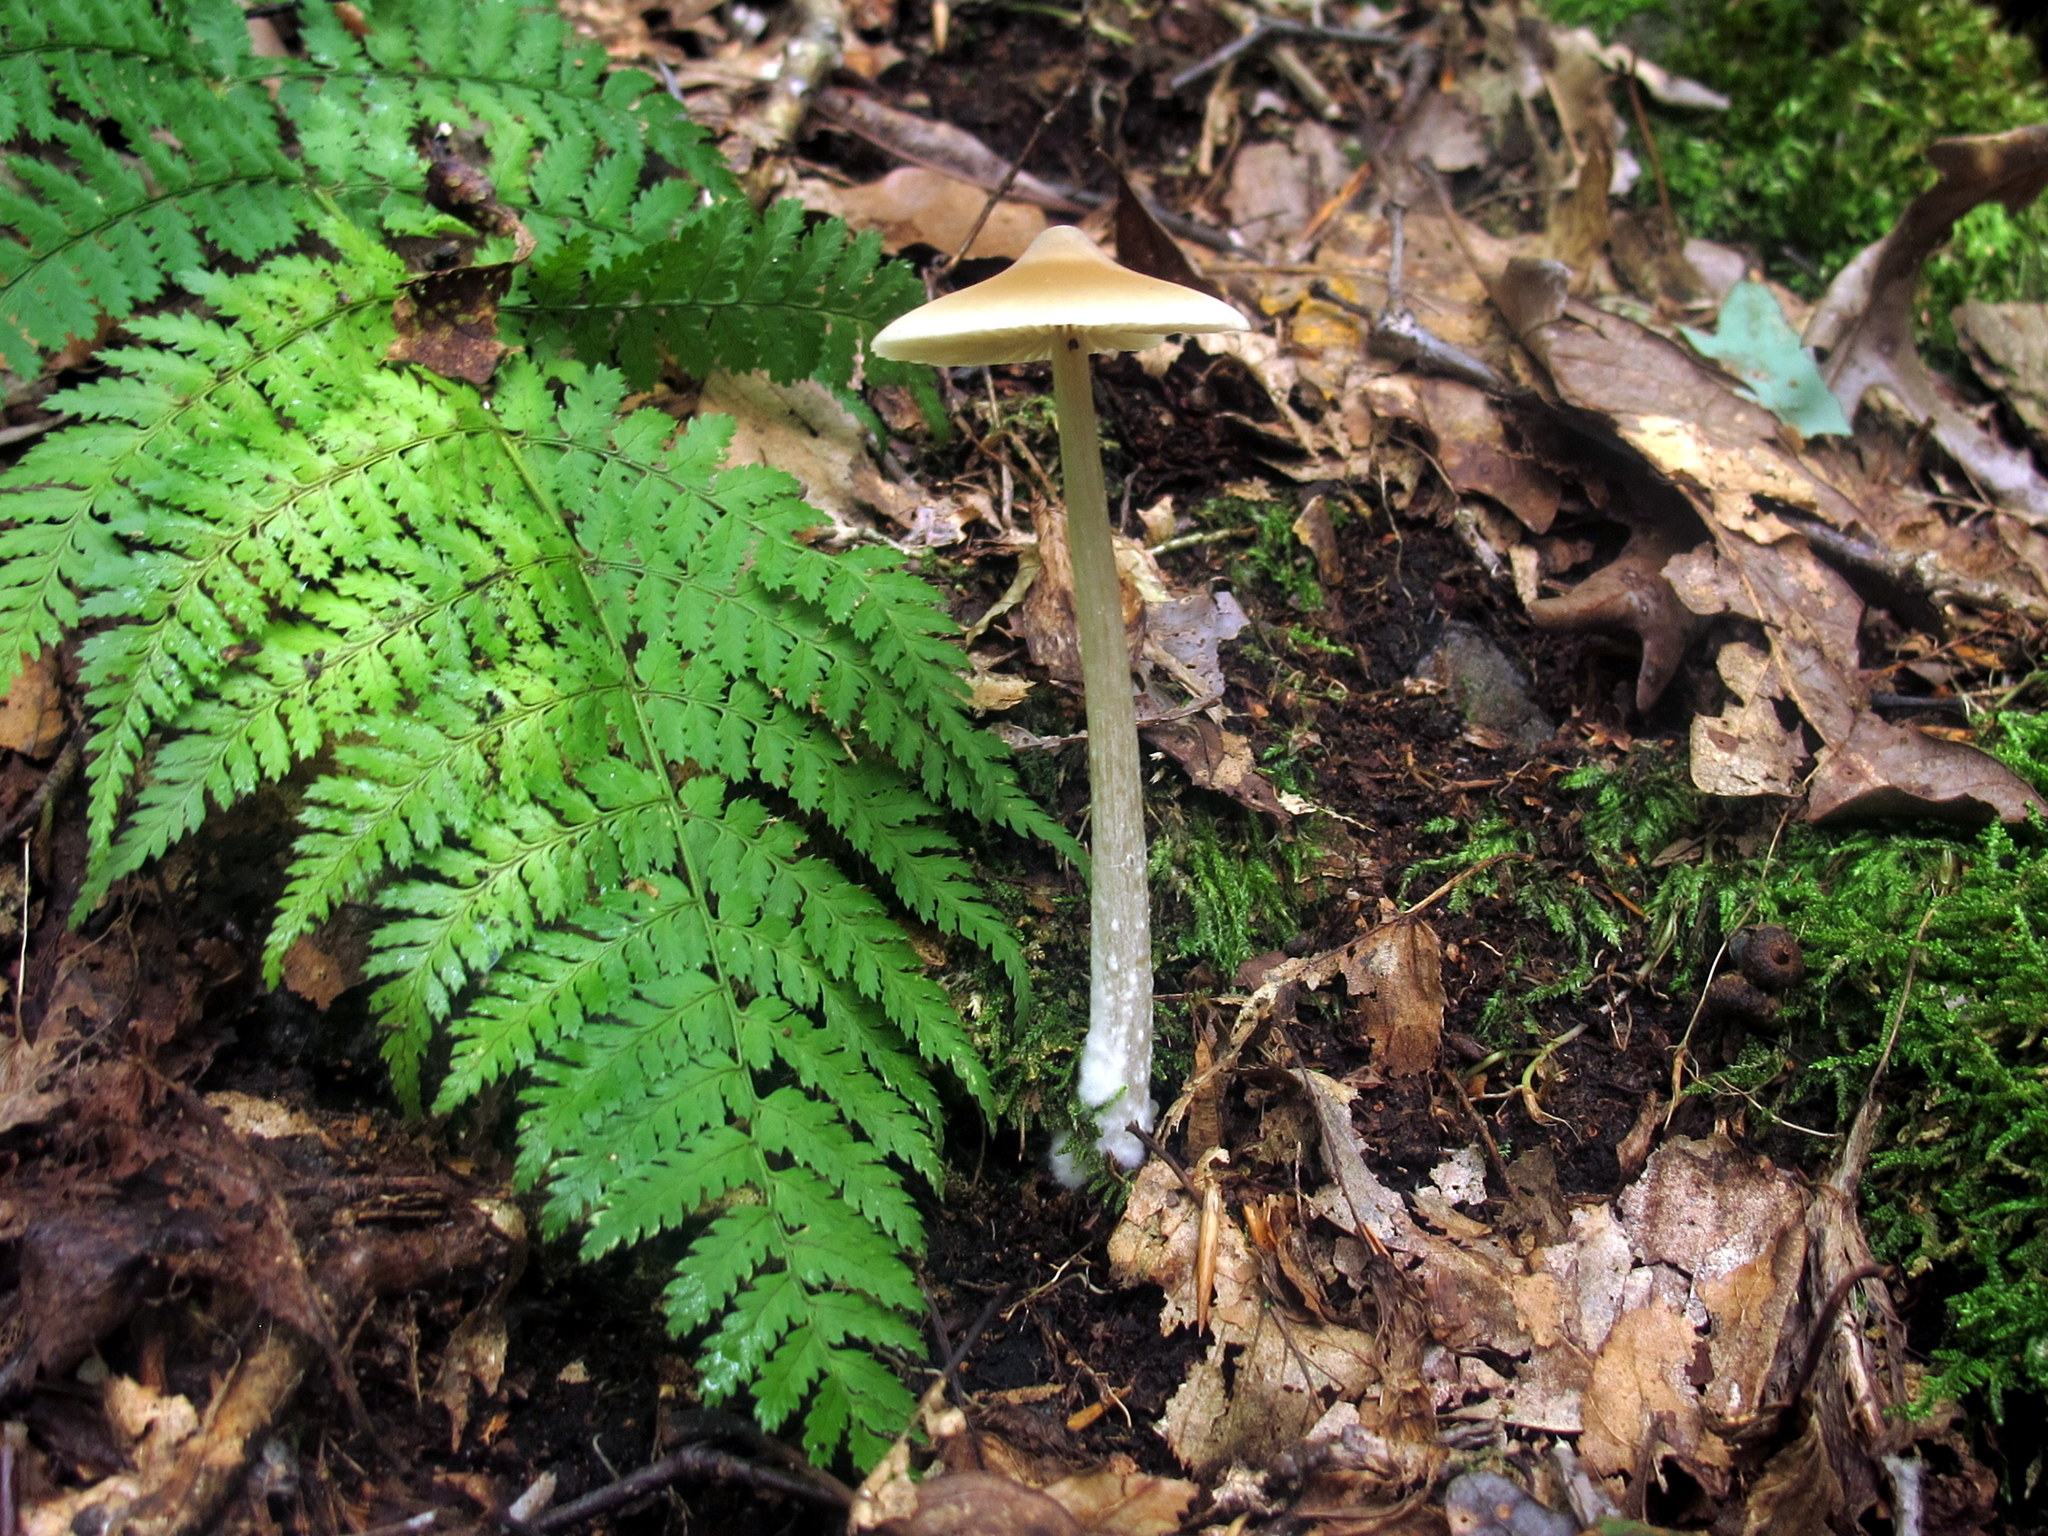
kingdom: Fungi
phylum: Basidiomycota
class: Agaricomycetes
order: Agaricales
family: Entolomataceae
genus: Entoloma
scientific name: Entoloma strictius
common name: Straight-stalked entoloma
